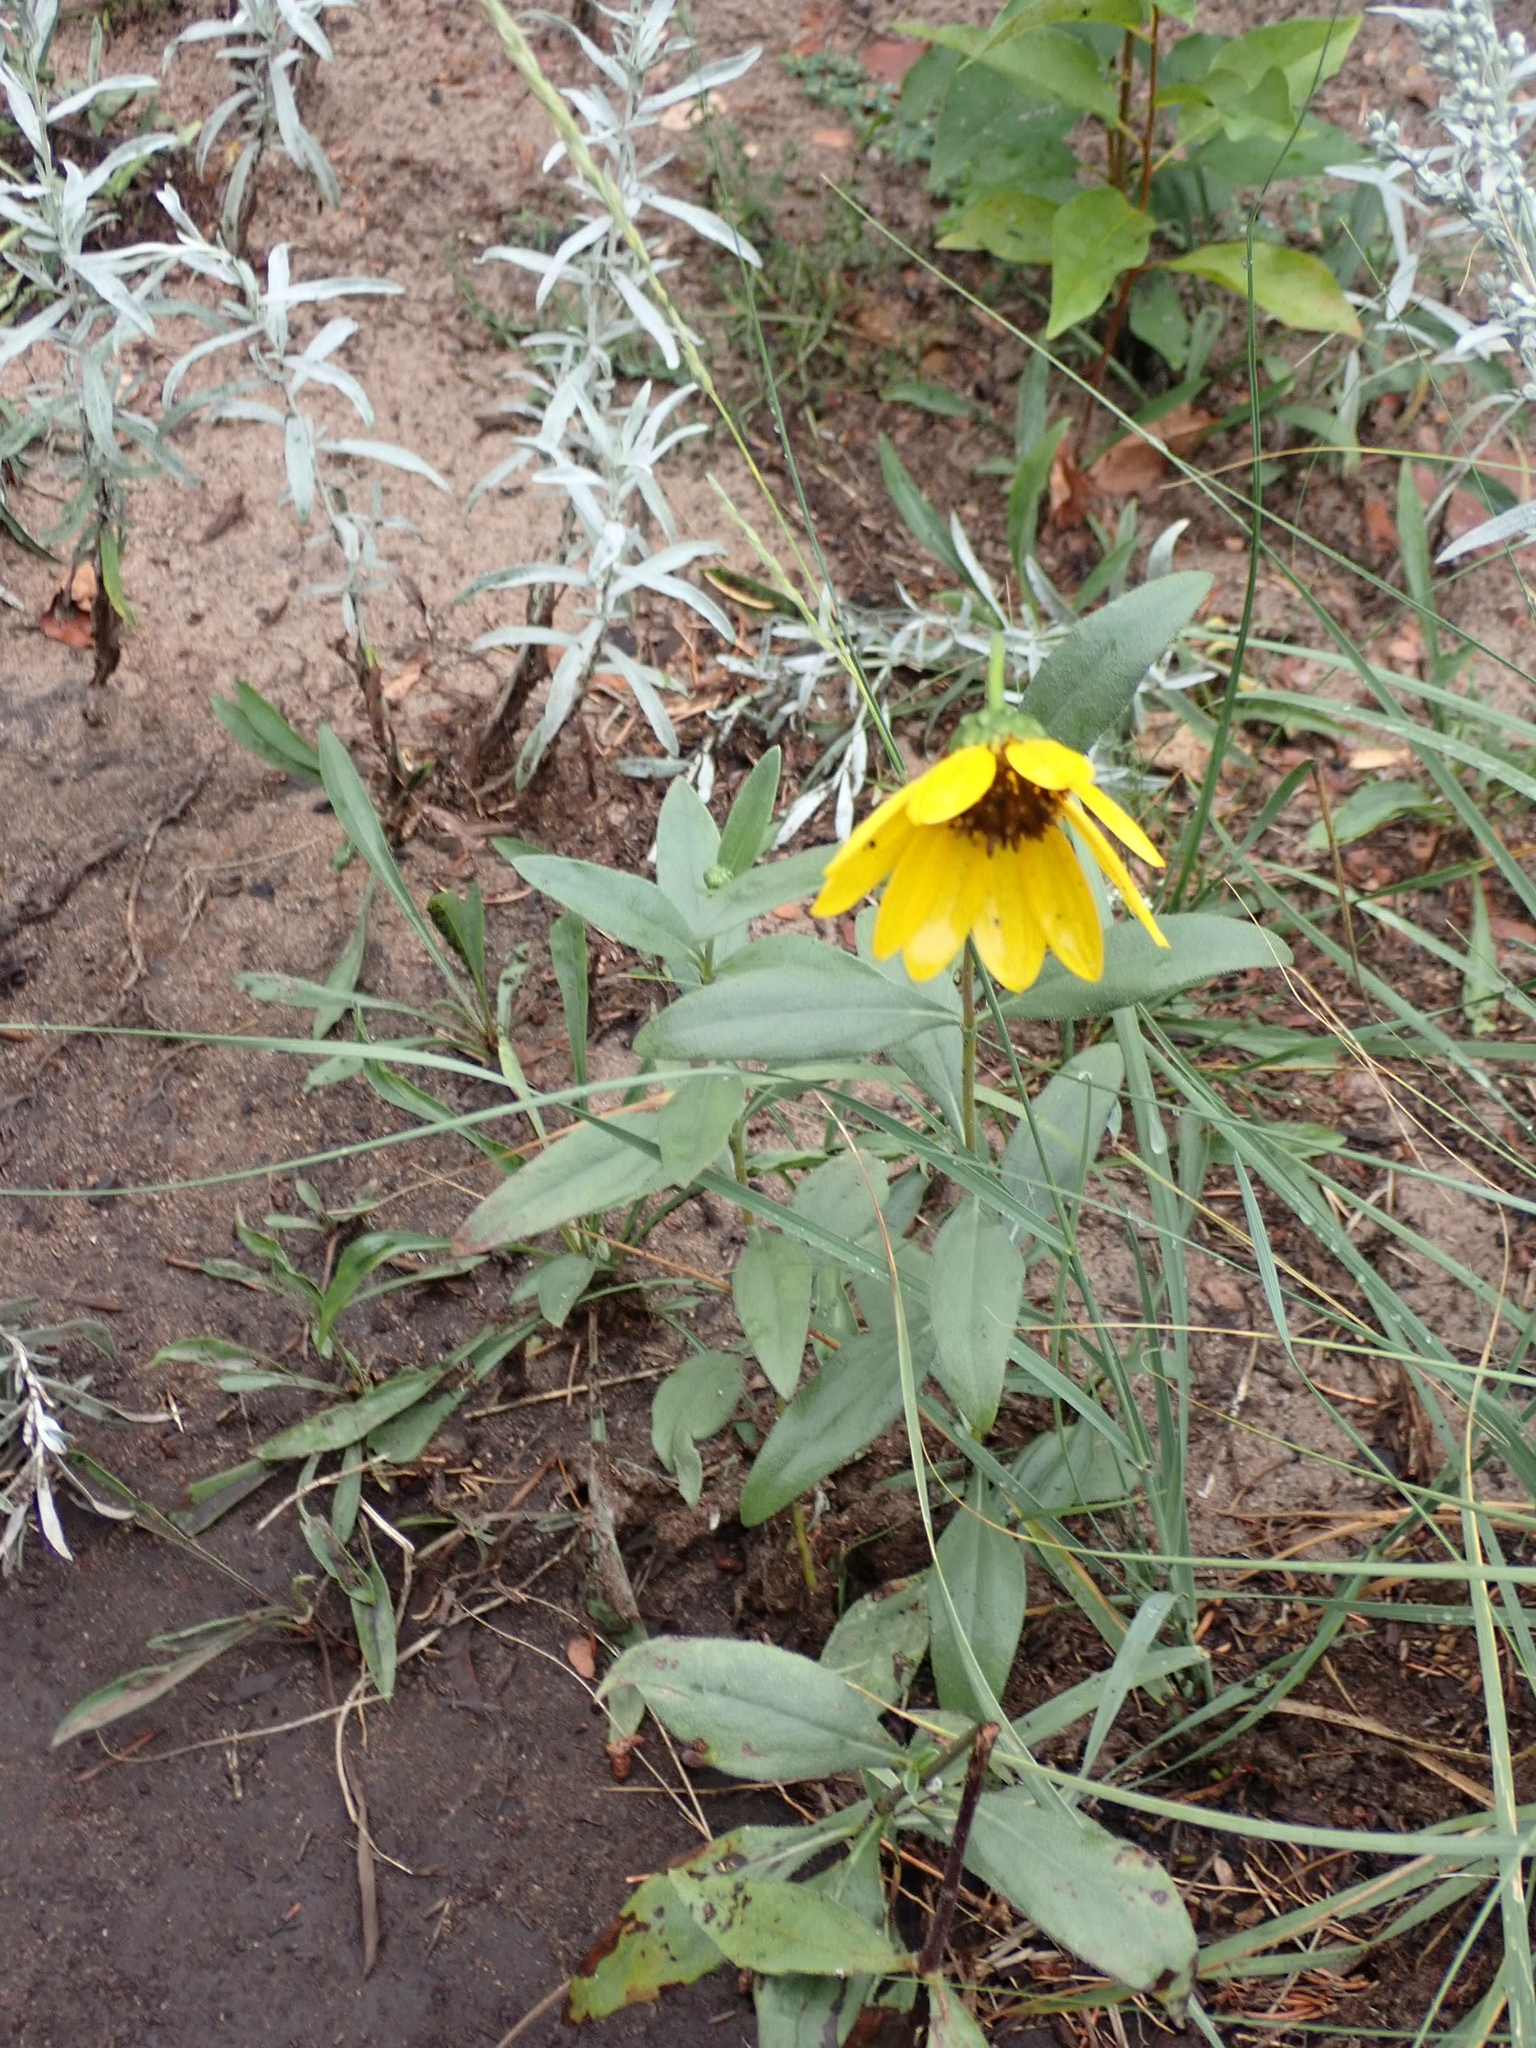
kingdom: Plantae
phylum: Tracheophyta
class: Magnoliopsida
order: Asterales
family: Asteraceae
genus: Helianthus
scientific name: Helianthus pauciflorus
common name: Stiff sunflower
